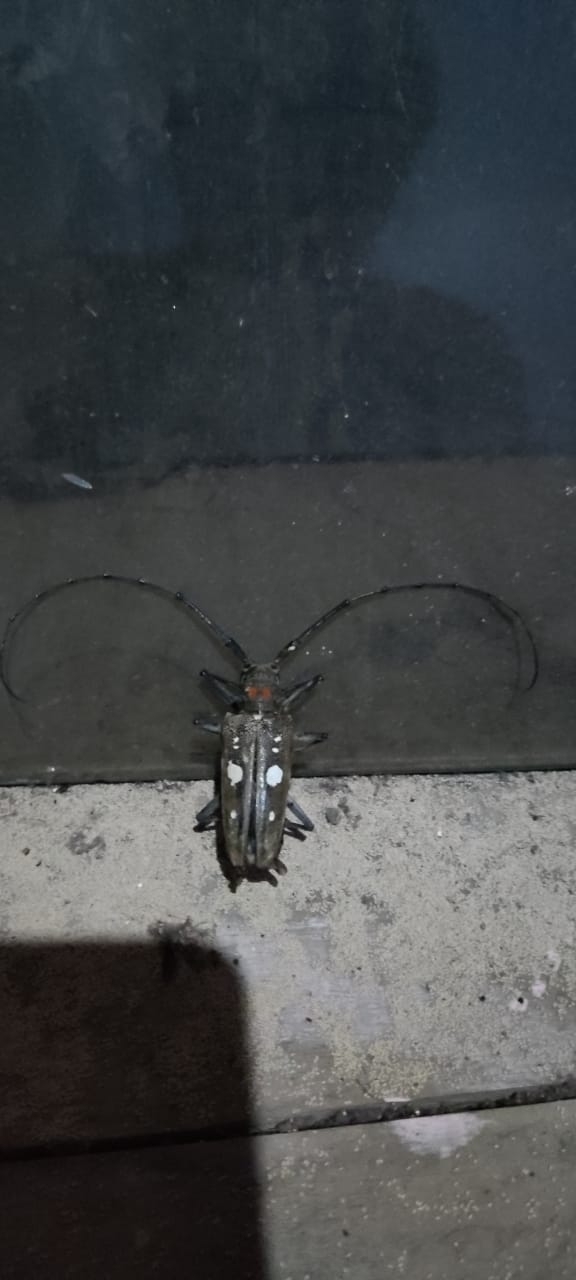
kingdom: Animalia
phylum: Arthropoda
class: Insecta
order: Coleoptera
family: Cerambycidae
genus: Batocera
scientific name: Batocera celebiana
